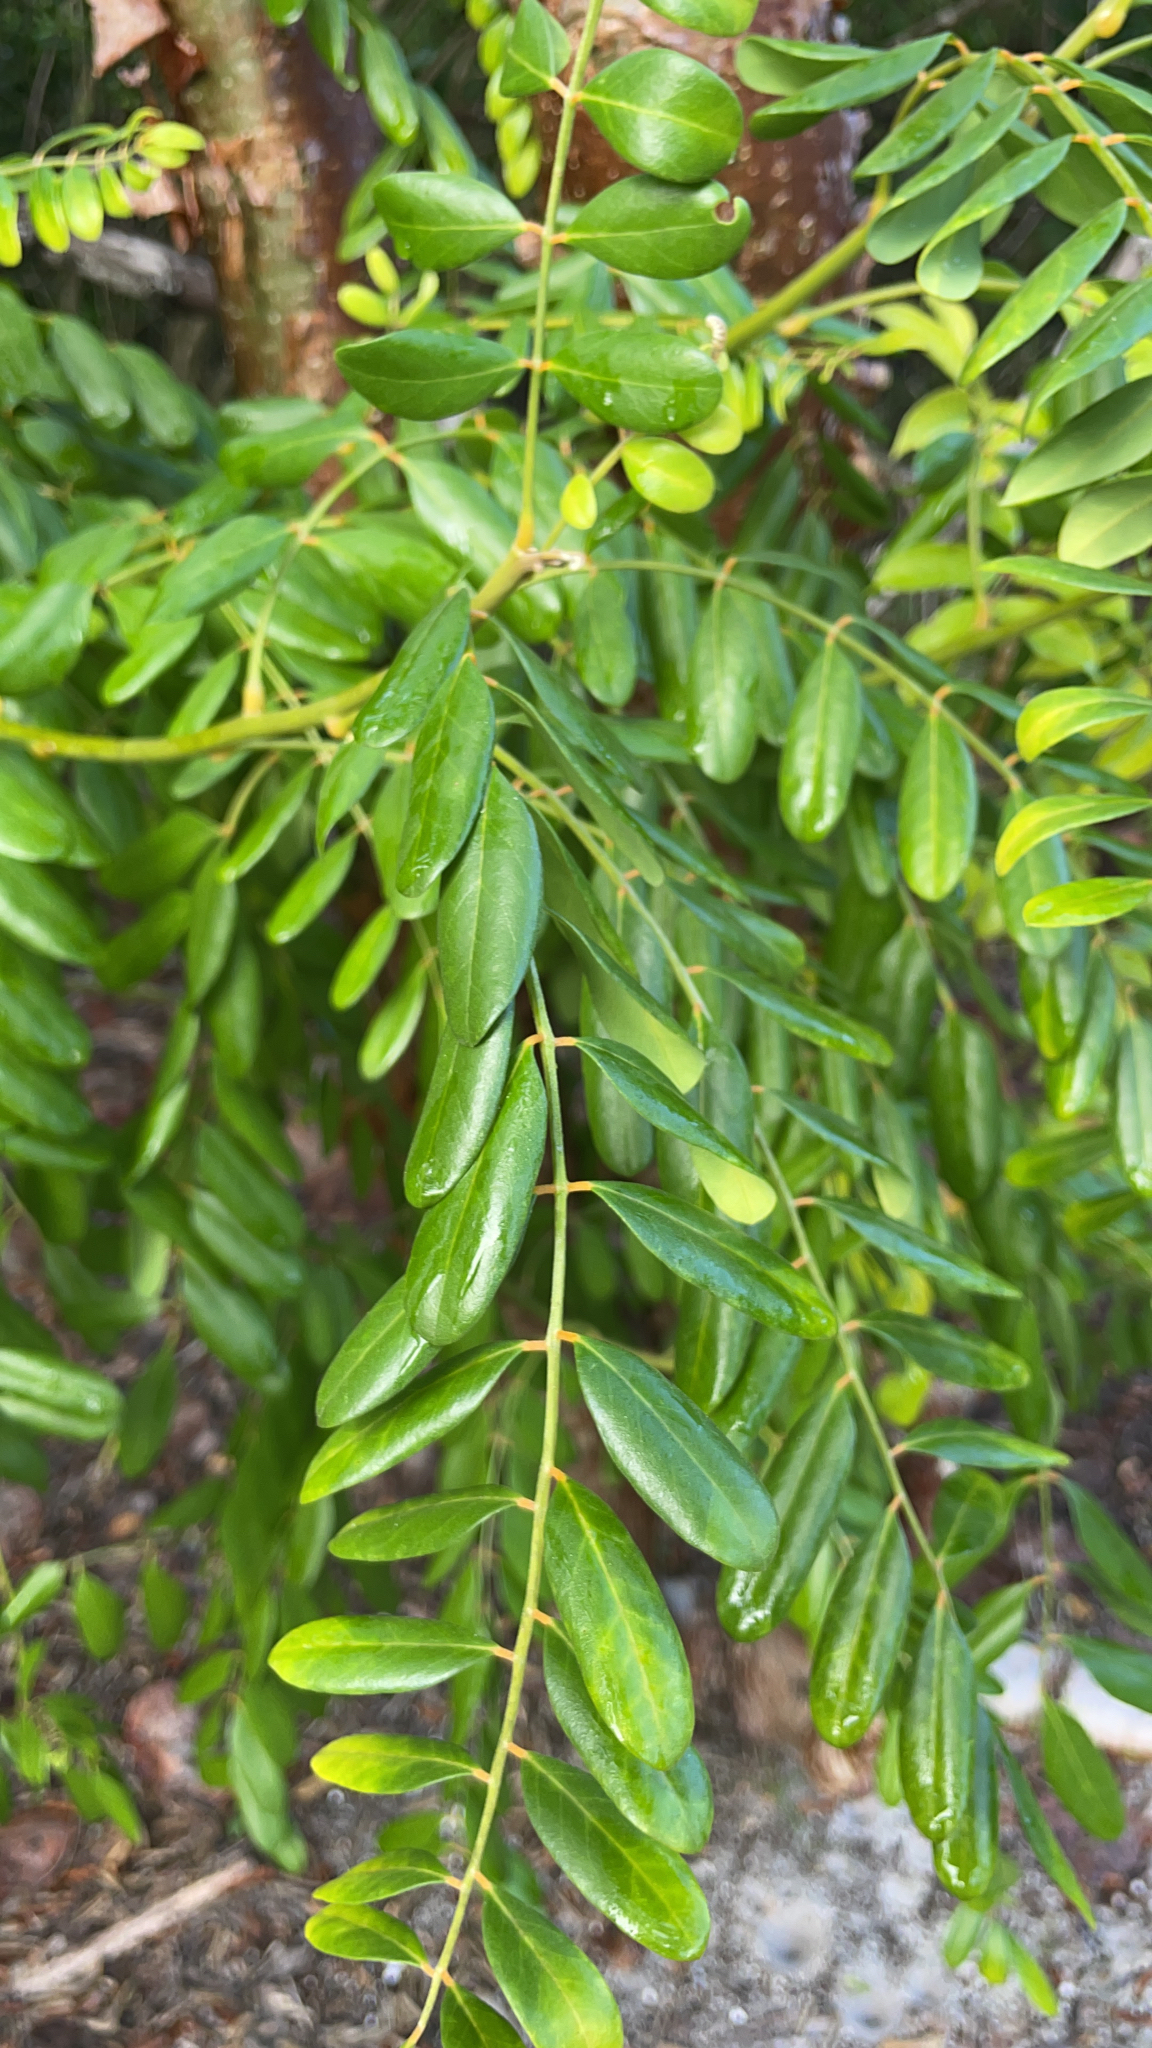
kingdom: Plantae
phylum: Tracheophyta
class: Magnoliopsida
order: Fabales
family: Fabaceae
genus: Sophora
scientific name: Sophora tomentosa
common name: Yellow necklacepod
